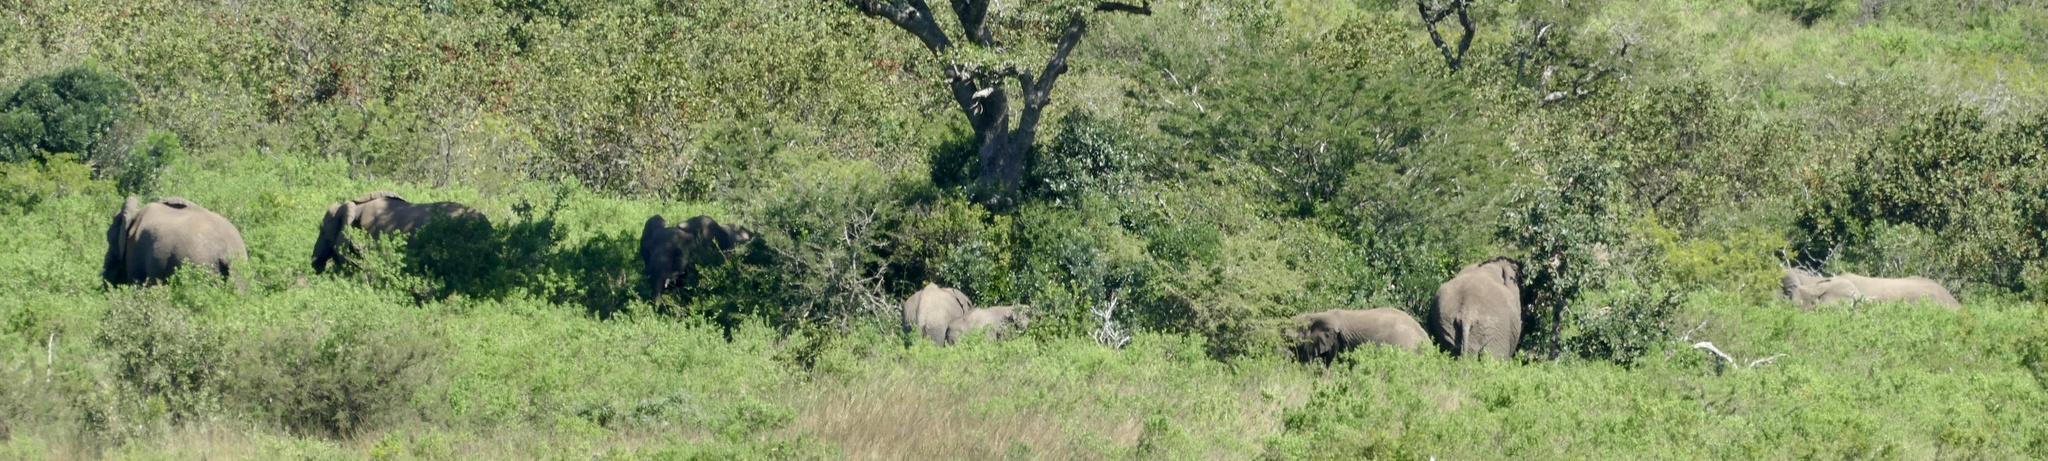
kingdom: Animalia
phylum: Chordata
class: Mammalia
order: Proboscidea
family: Elephantidae
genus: Loxodonta
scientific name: Loxodonta africana
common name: African elephant
